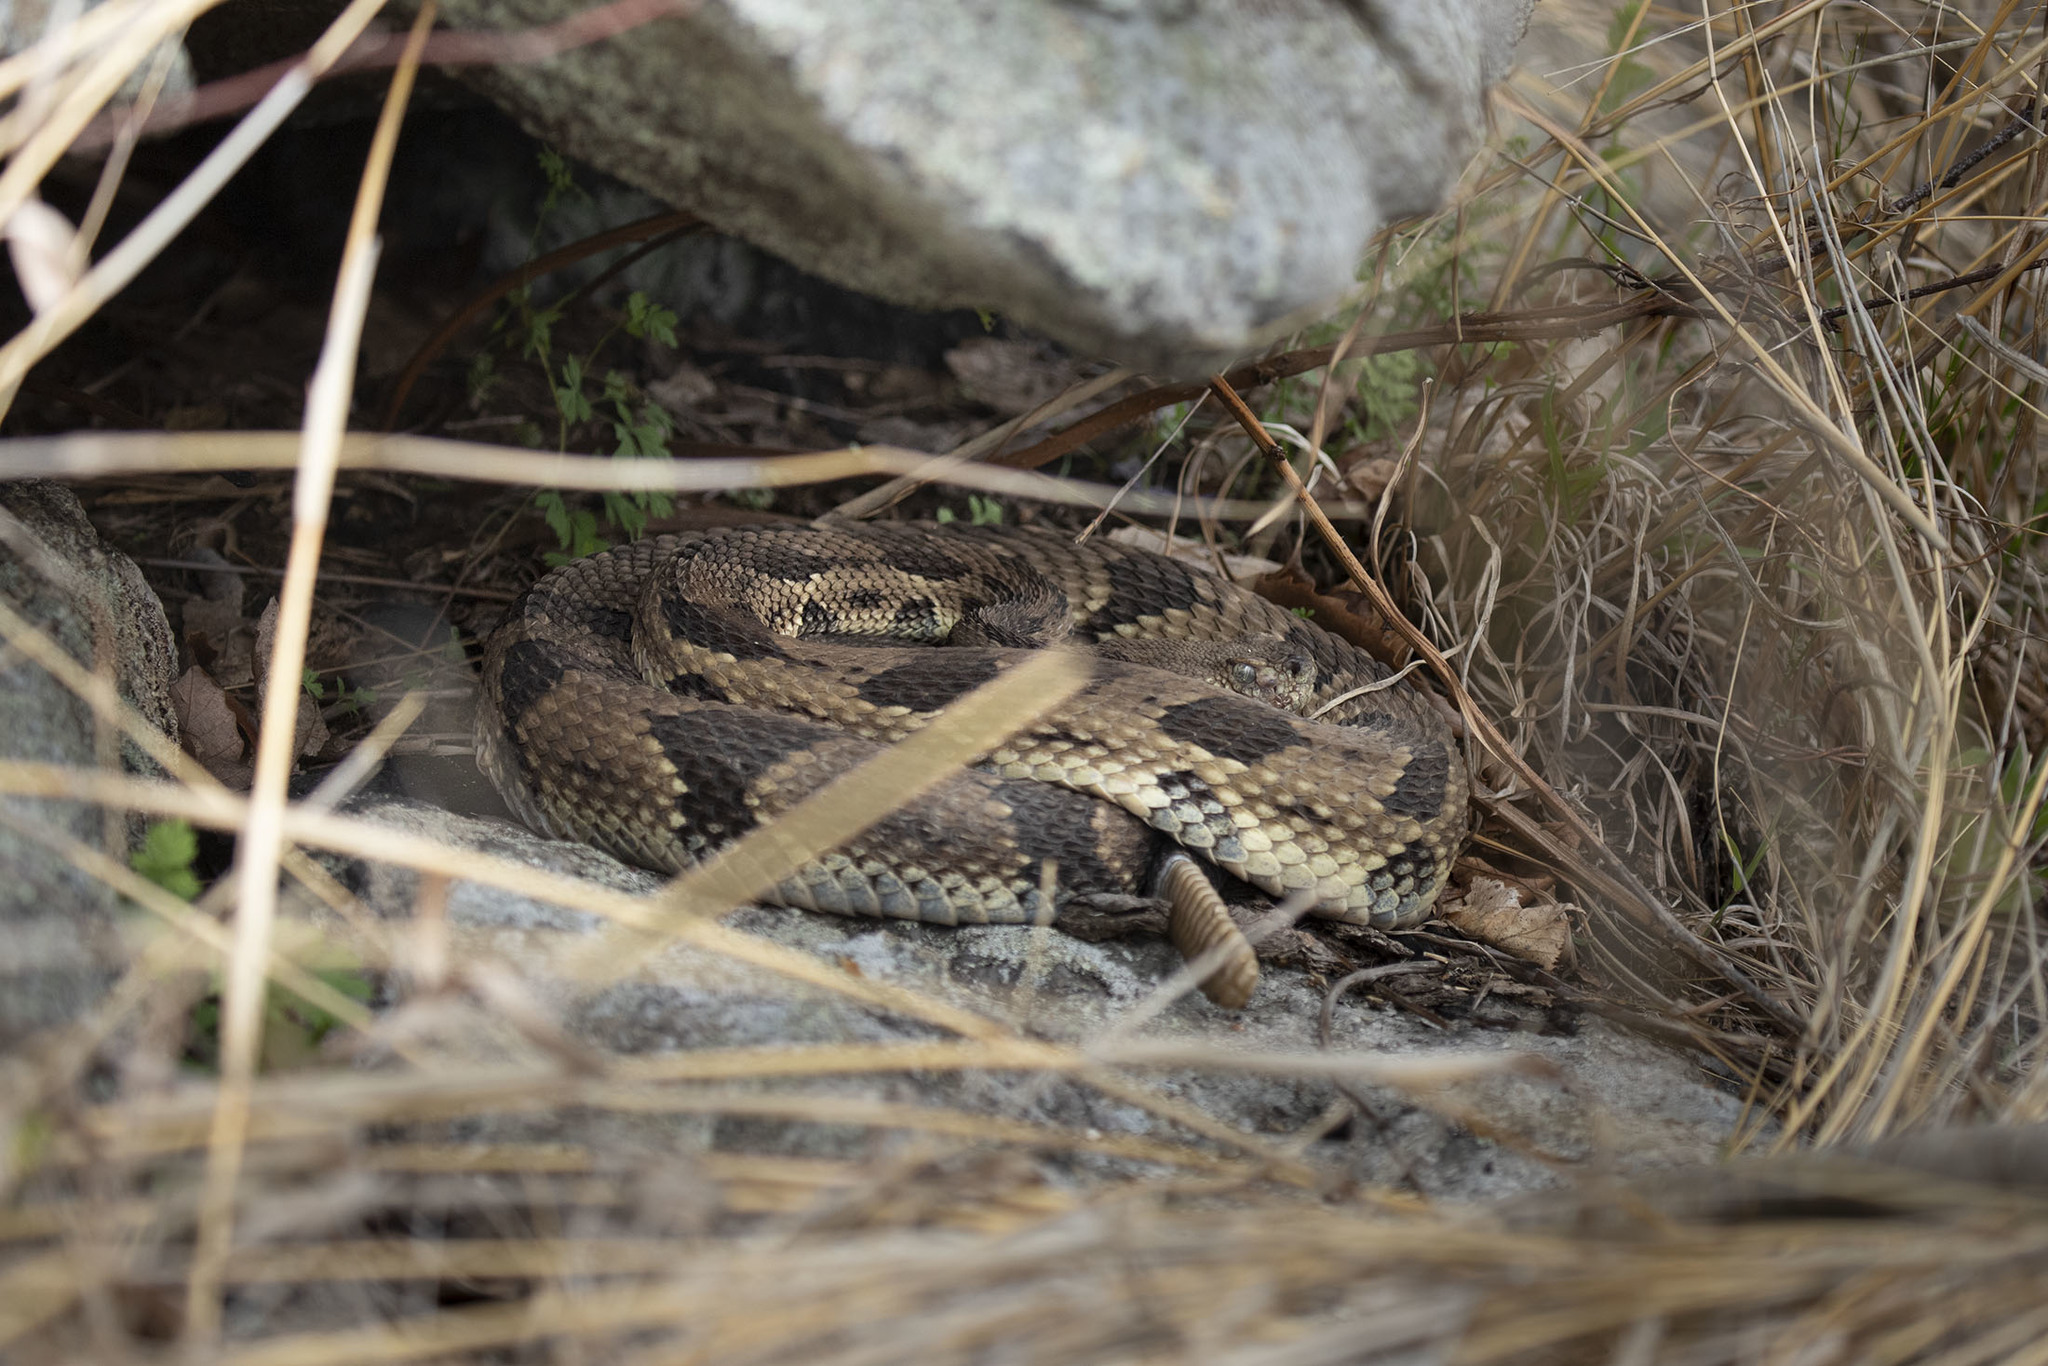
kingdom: Animalia
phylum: Chordata
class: Squamata
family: Viperidae
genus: Crotalus
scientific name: Crotalus horridus
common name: Timber rattlesnake
